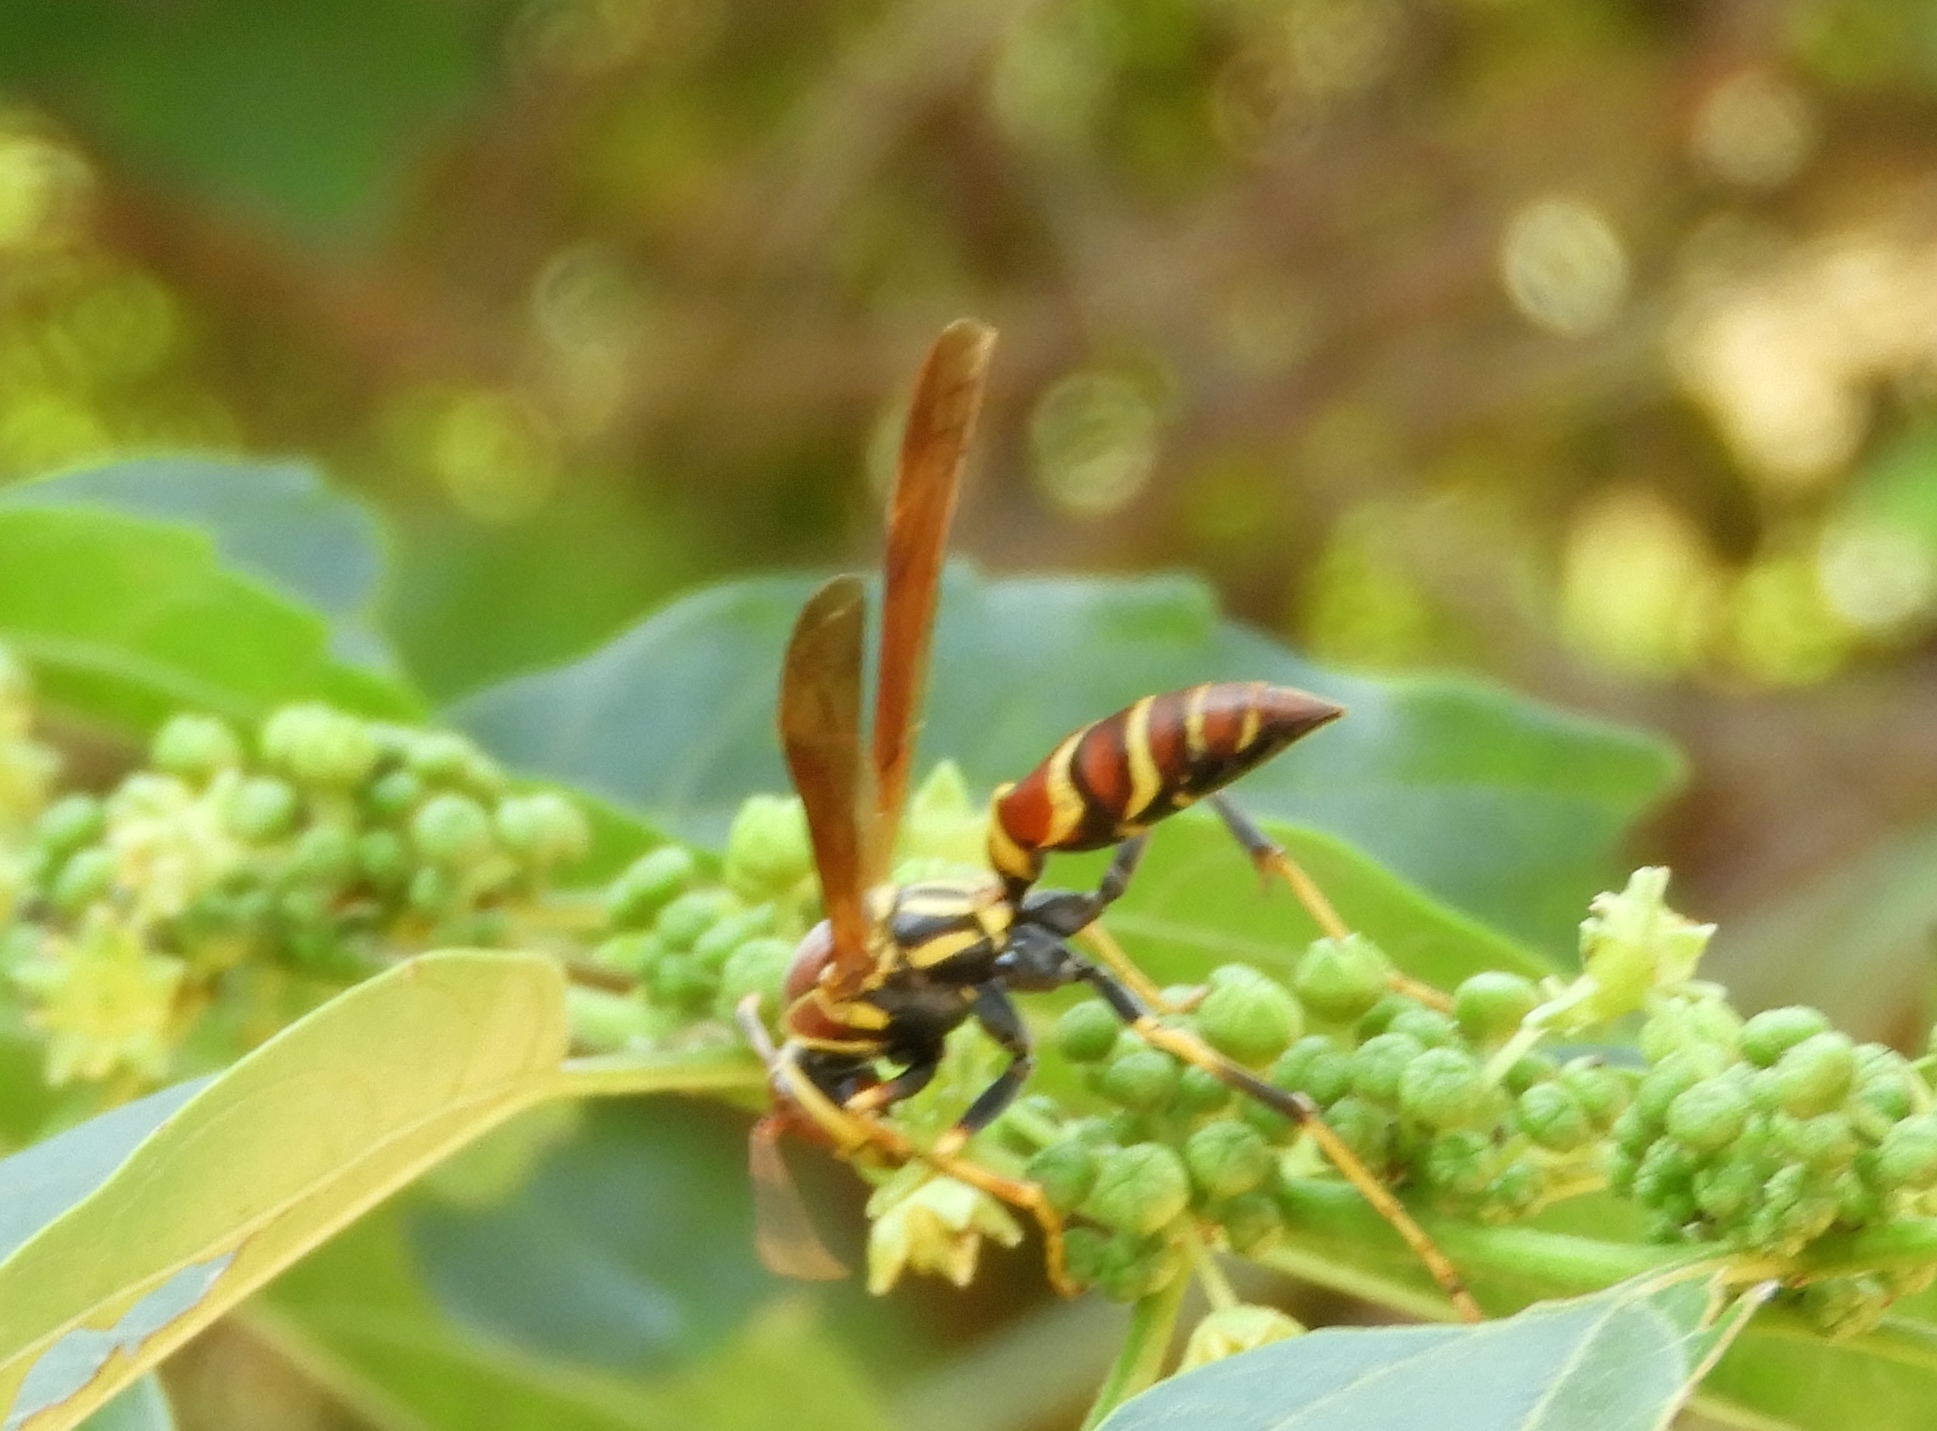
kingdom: Animalia
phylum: Arthropoda
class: Insecta
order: Hymenoptera
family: Eumenidae
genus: Polistes
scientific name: Polistes instabilis
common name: Unstable paper wasp
